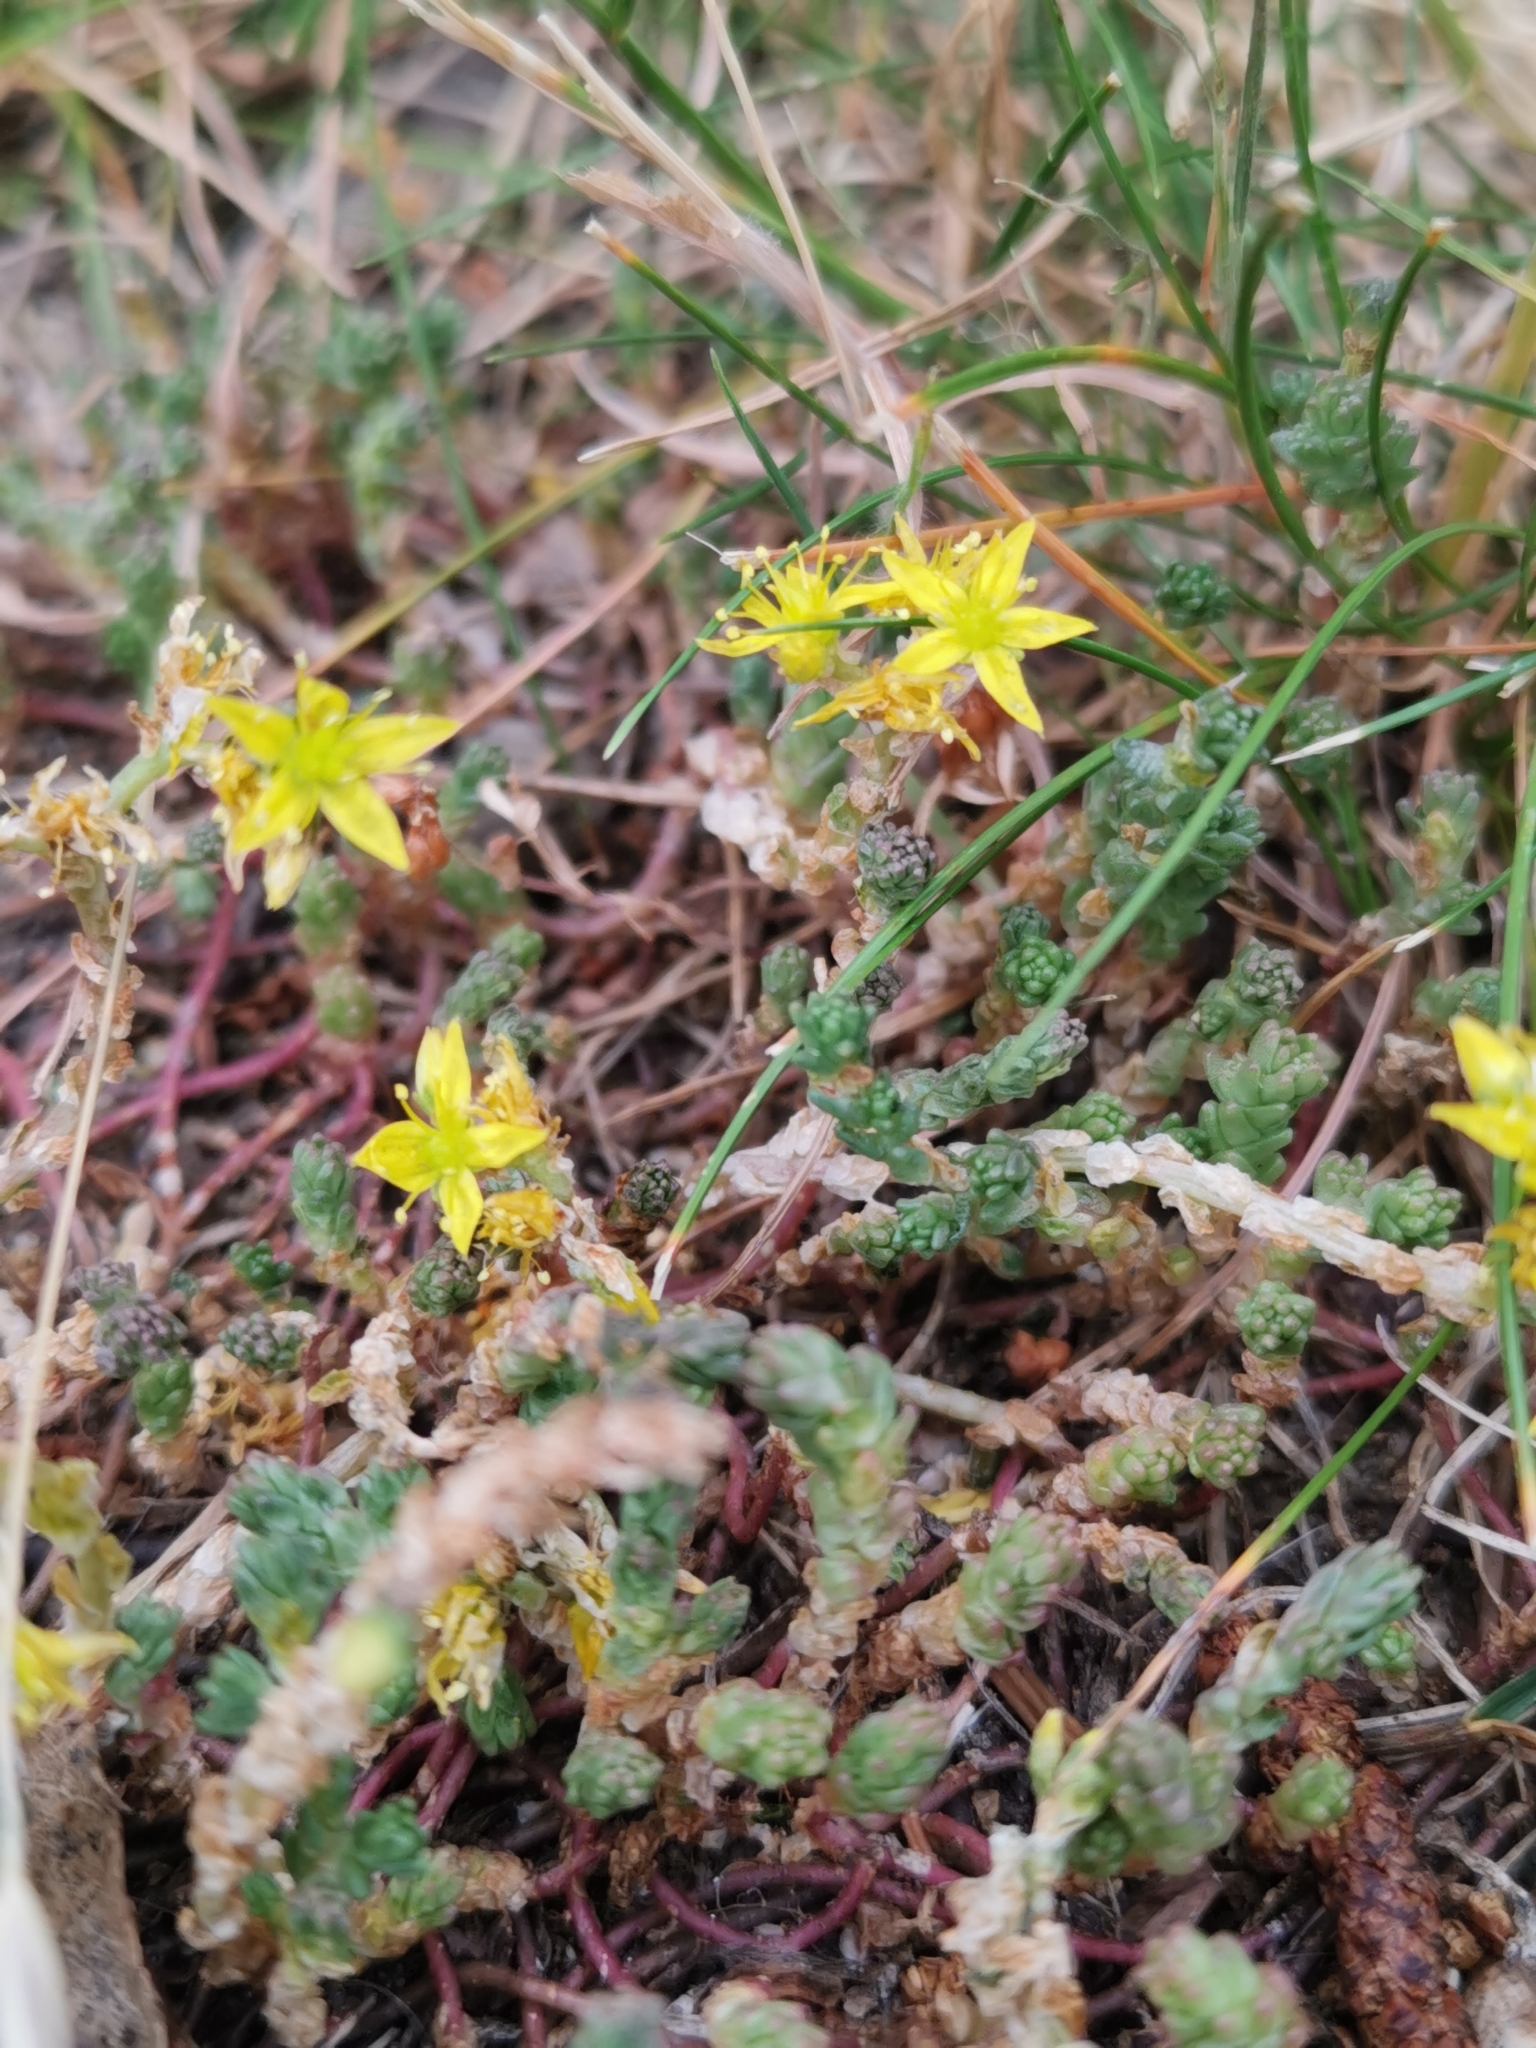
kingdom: Plantae
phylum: Tracheophyta
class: Magnoliopsida
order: Saxifragales
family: Crassulaceae
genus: Sedum
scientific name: Sedum acre
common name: Biting stonecrop
